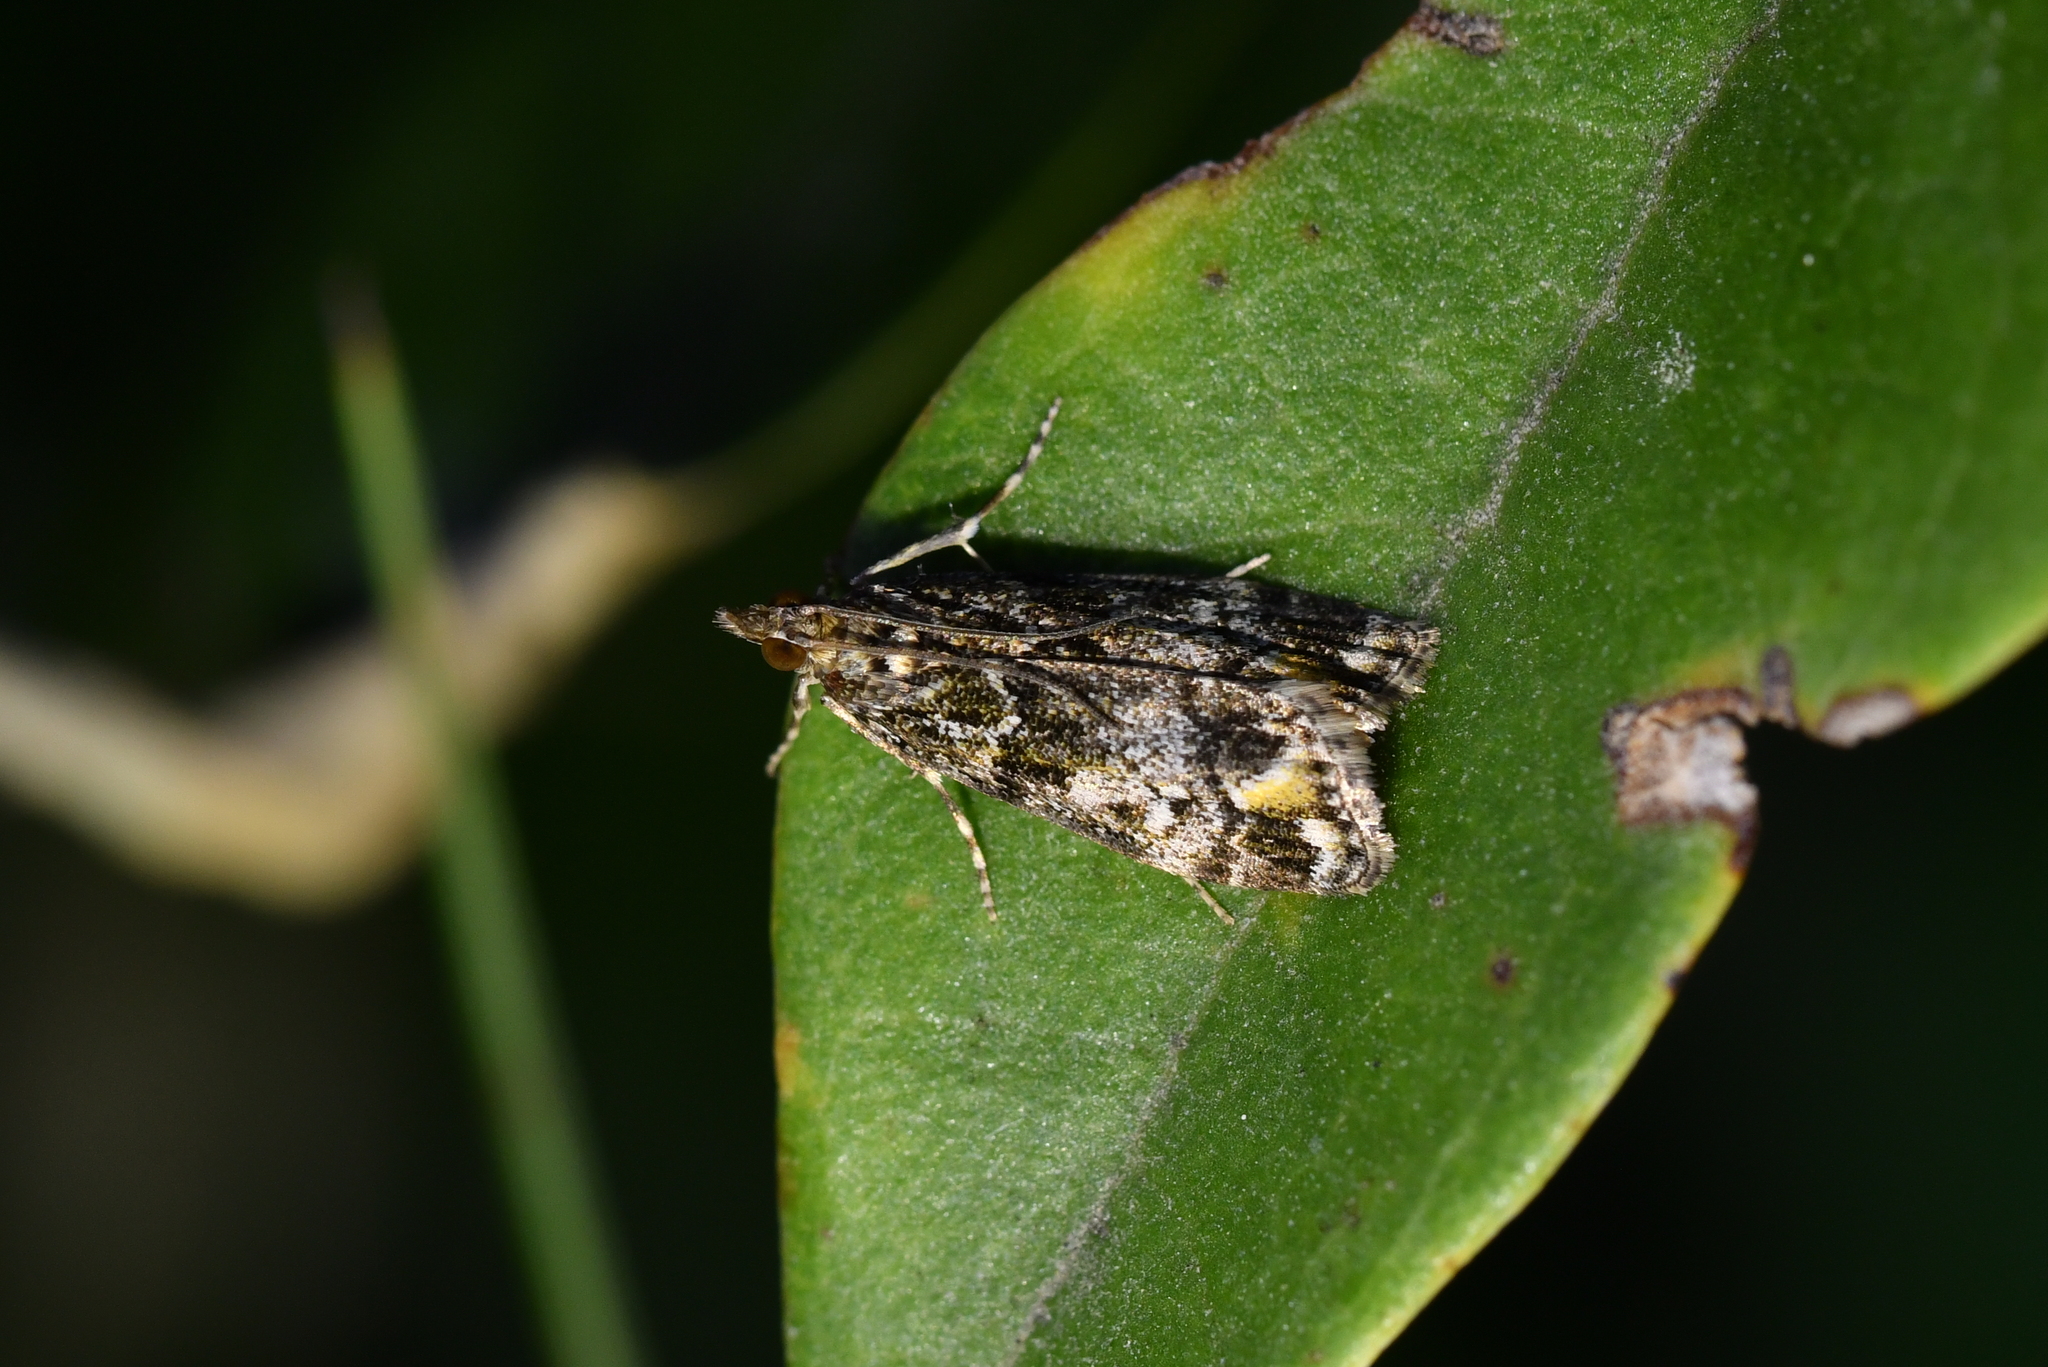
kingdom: Animalia
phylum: Arthropoda
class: Insecta
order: Lepidoptera
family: Crambidae
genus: Eudonia
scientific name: Eudonia minualis
